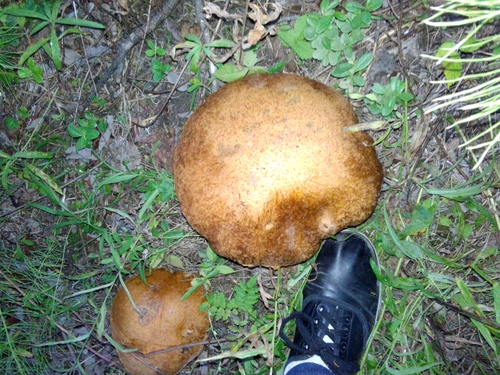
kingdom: Fungi
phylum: Basidiomycota
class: Agaricomycetes
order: Boletales
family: Boletaceae
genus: Boletus
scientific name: Boletus edulis
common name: Cep
